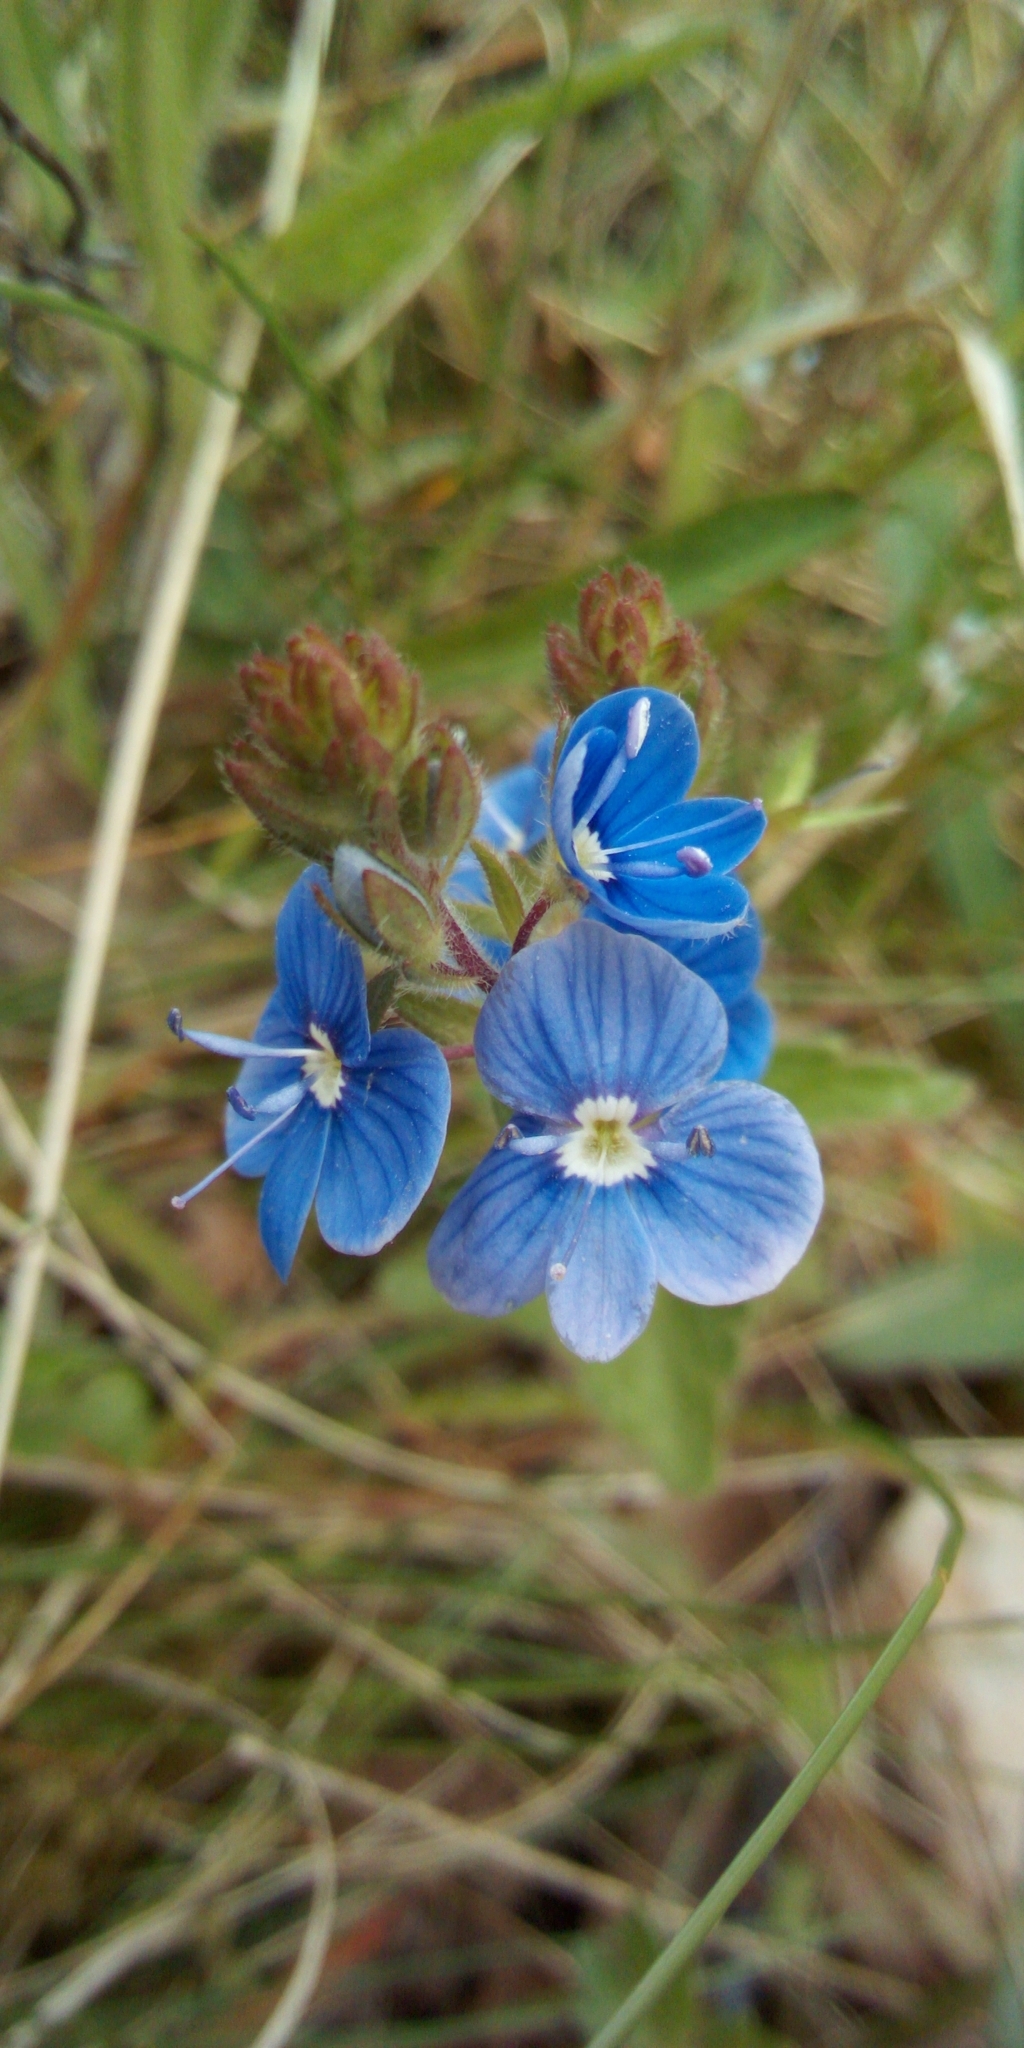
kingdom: Plantae
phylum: Tracheophyta
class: Magnoliopsida
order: Lamiales
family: Plantaginaceae
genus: Veronica
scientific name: Veronica chamaedrys
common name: Germander speedwell
